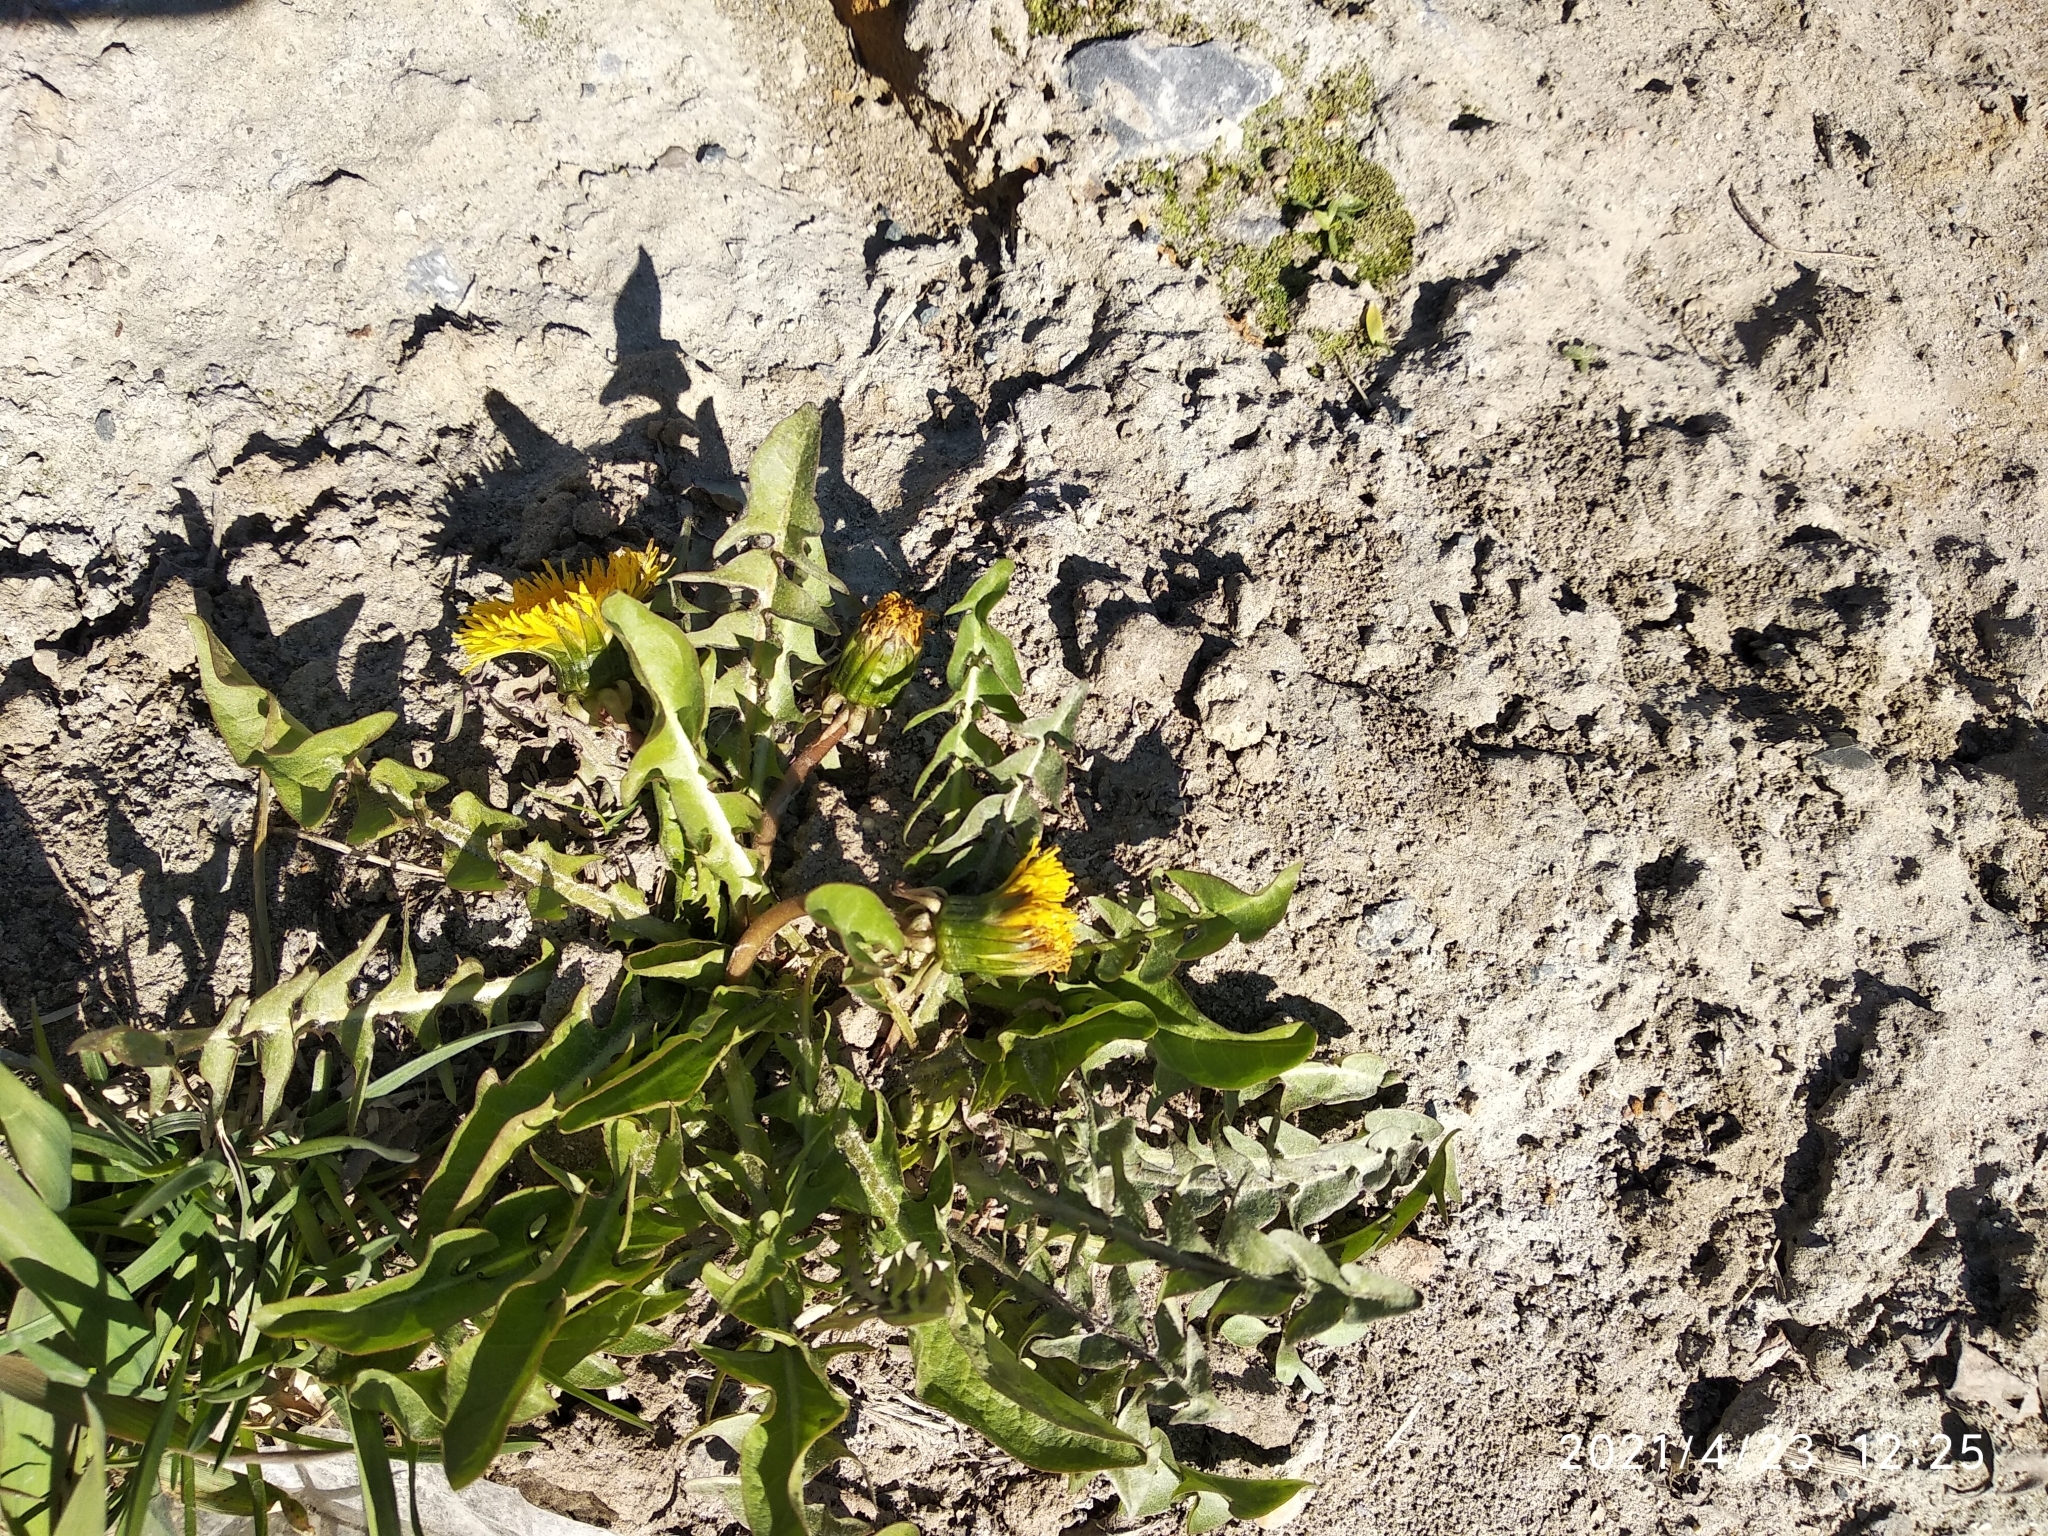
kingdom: Plantae
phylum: Tracheophyta
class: Magnoliopsida
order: Asterales
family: Asteraceae
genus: Taraxacum
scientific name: Taraxacum officinale
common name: Common dandelion
